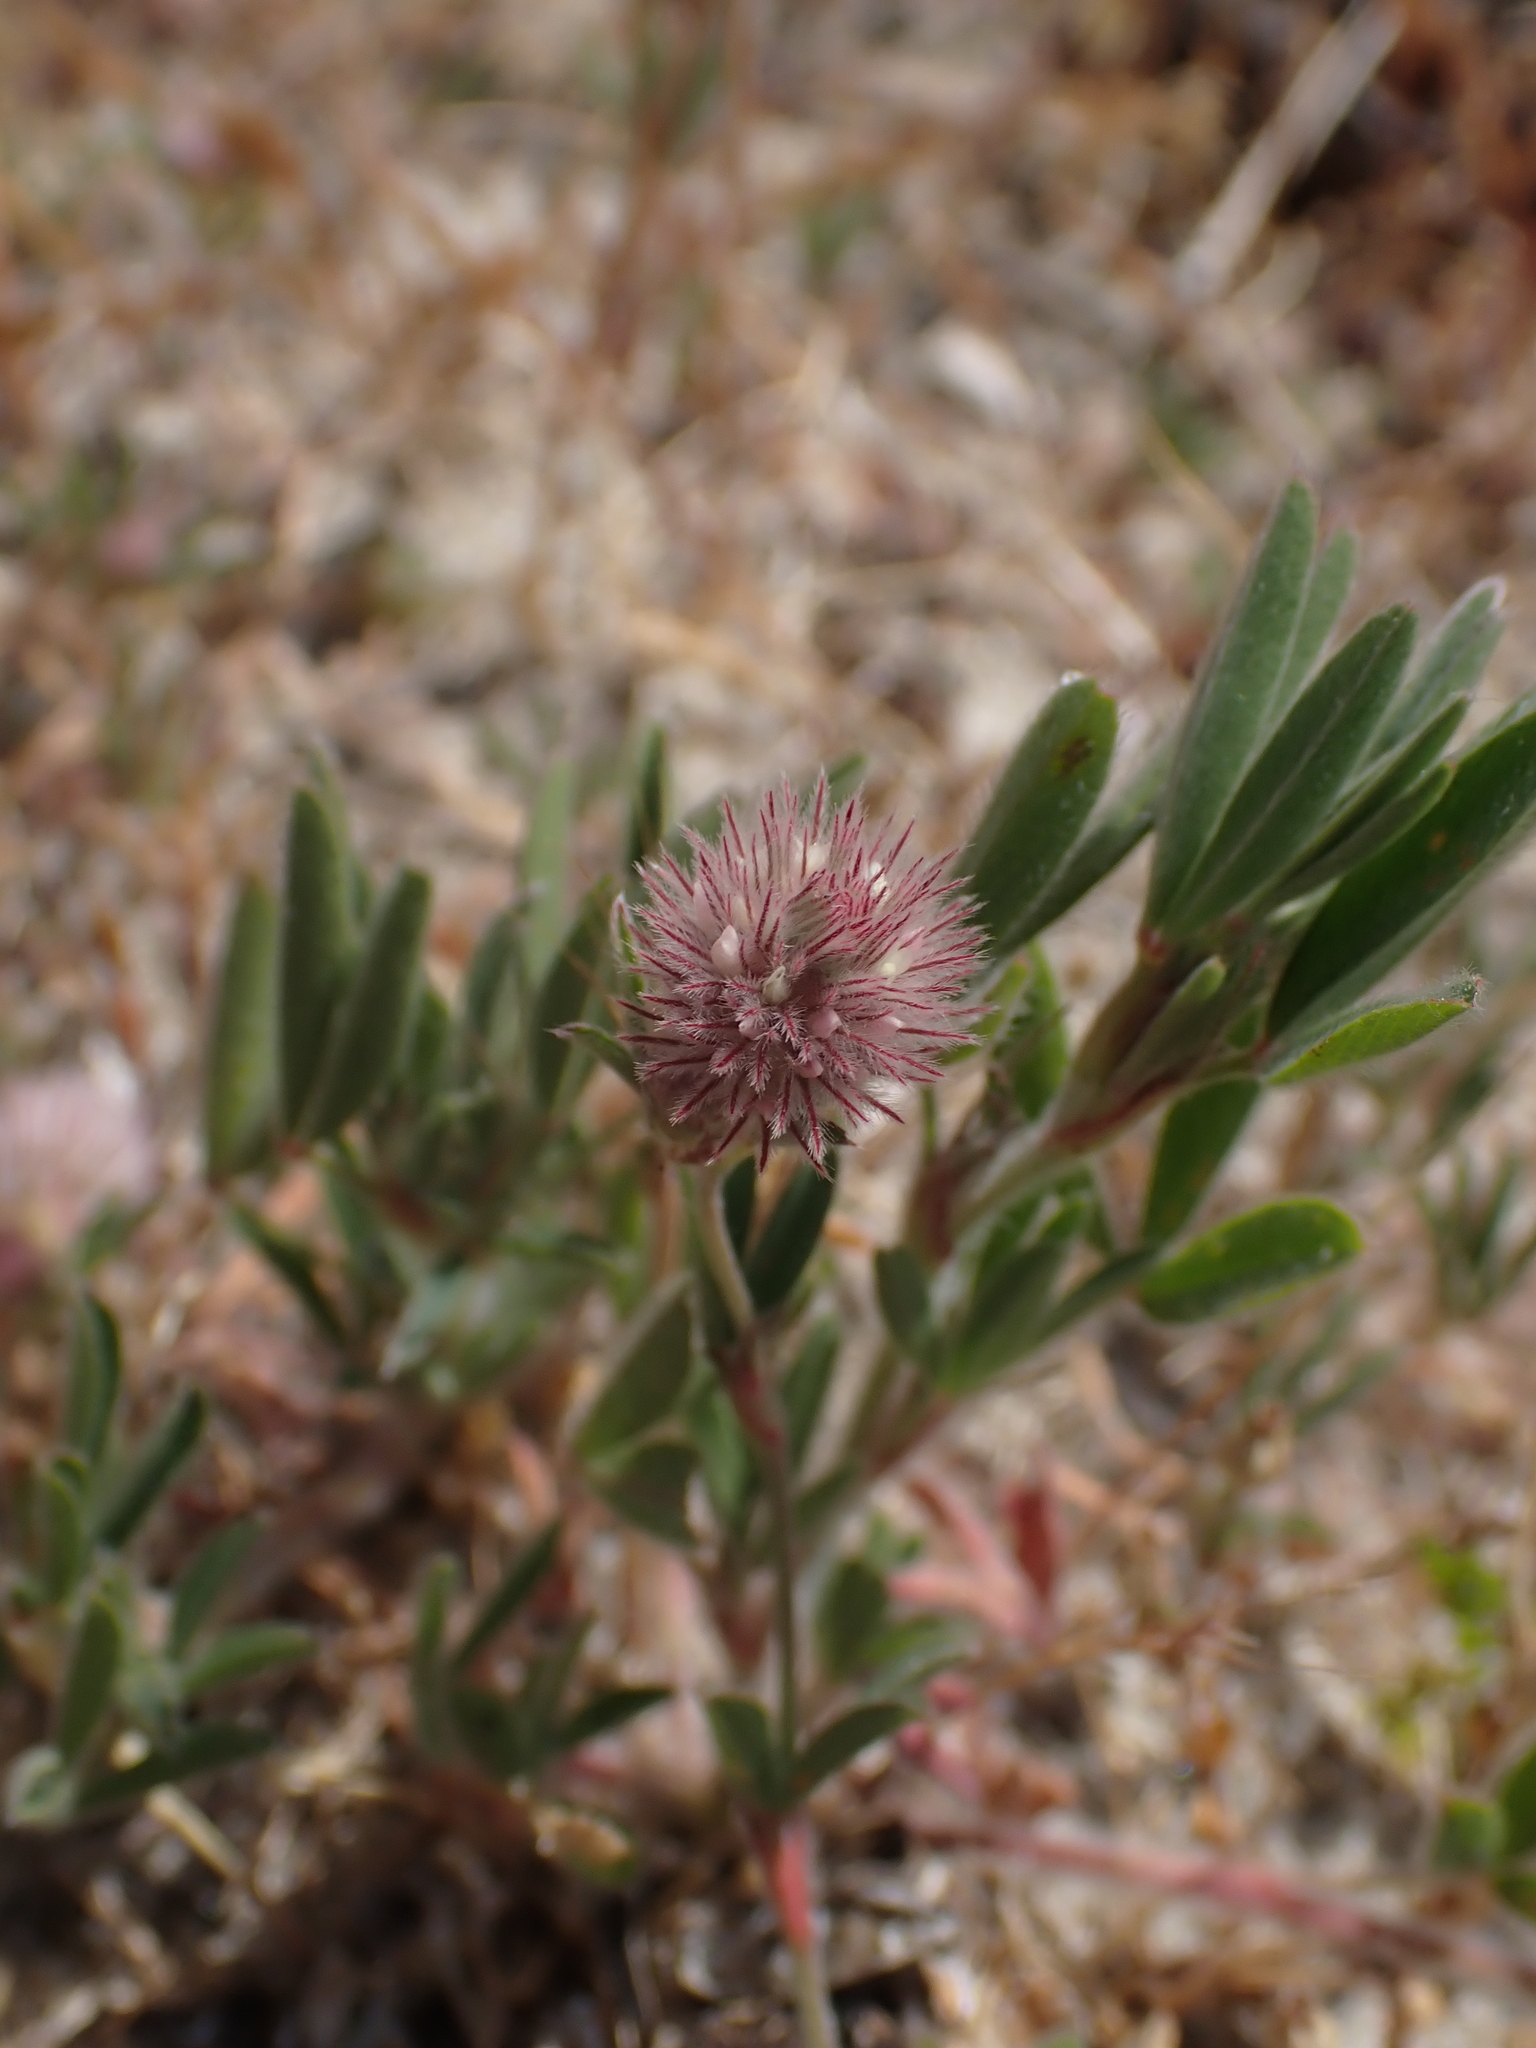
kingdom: Plantae
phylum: Tracheophyta
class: Magnoliopsida
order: Fabales
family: Fabaceae
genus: Trifolium
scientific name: Trifolium arvense
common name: Hare's-foot clover
